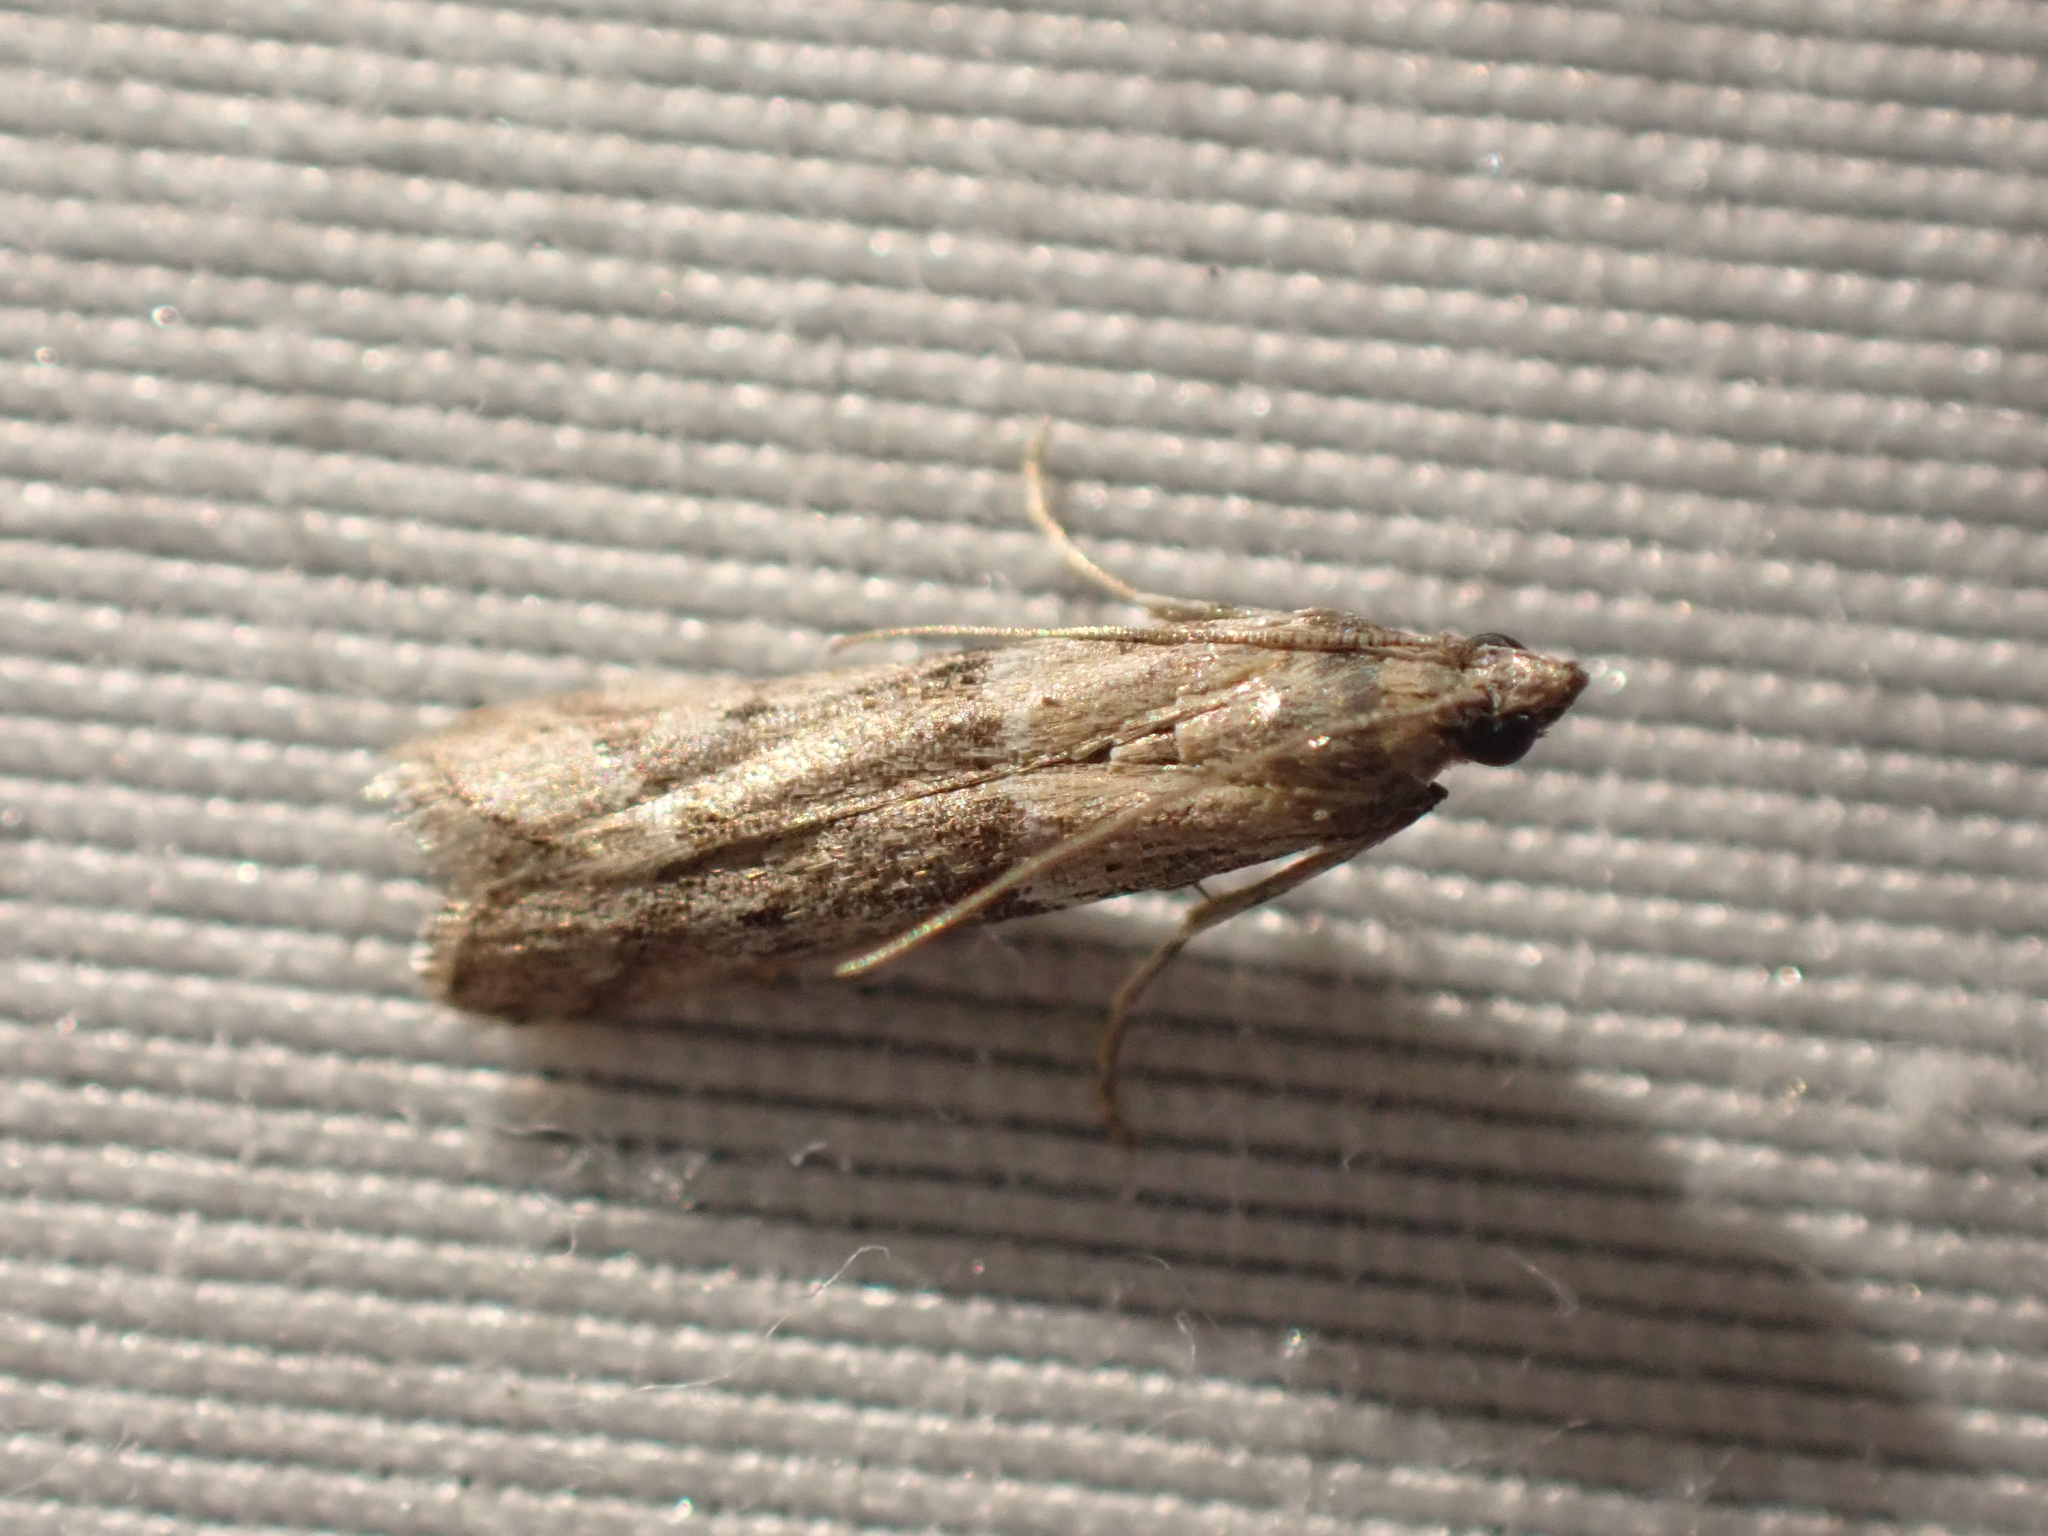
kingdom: Animalia
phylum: Arthropoda
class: Insecta
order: Lepidoptera
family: Pyralidae
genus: Ephestiodes
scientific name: Ephestiodes gilvescentella
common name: Moth
